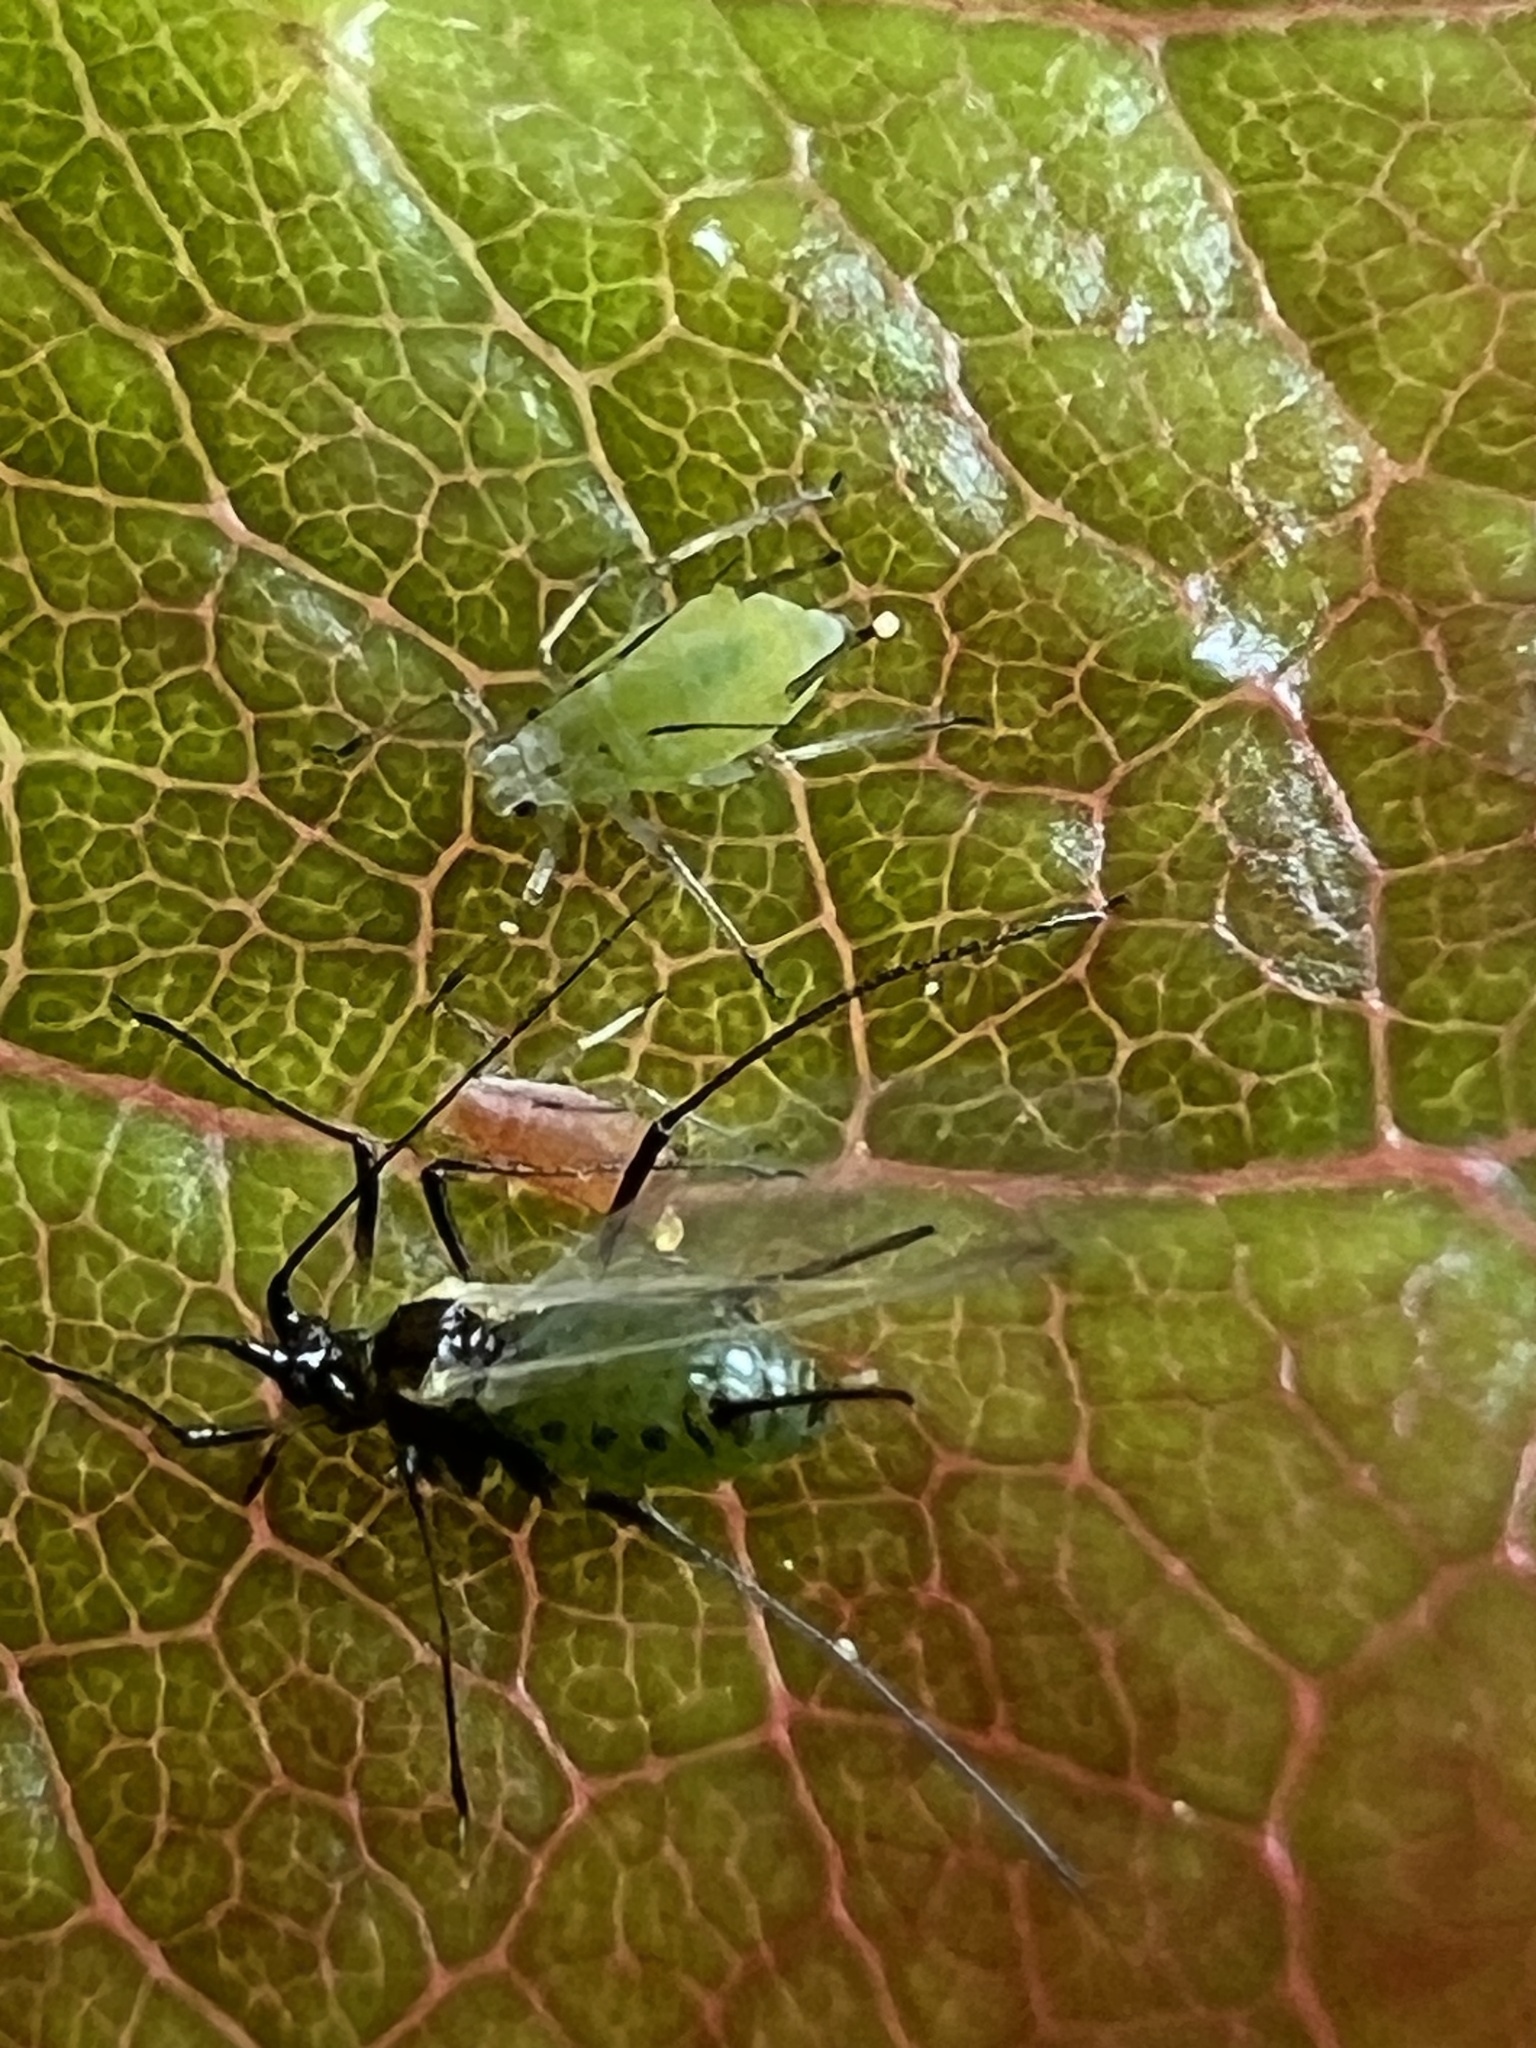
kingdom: Animalia
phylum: Arthropoda
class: Insecta
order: Hemiptera
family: Aphididae
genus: Macrosiphum
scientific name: Macrosiphum rosae
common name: Rose aphid
